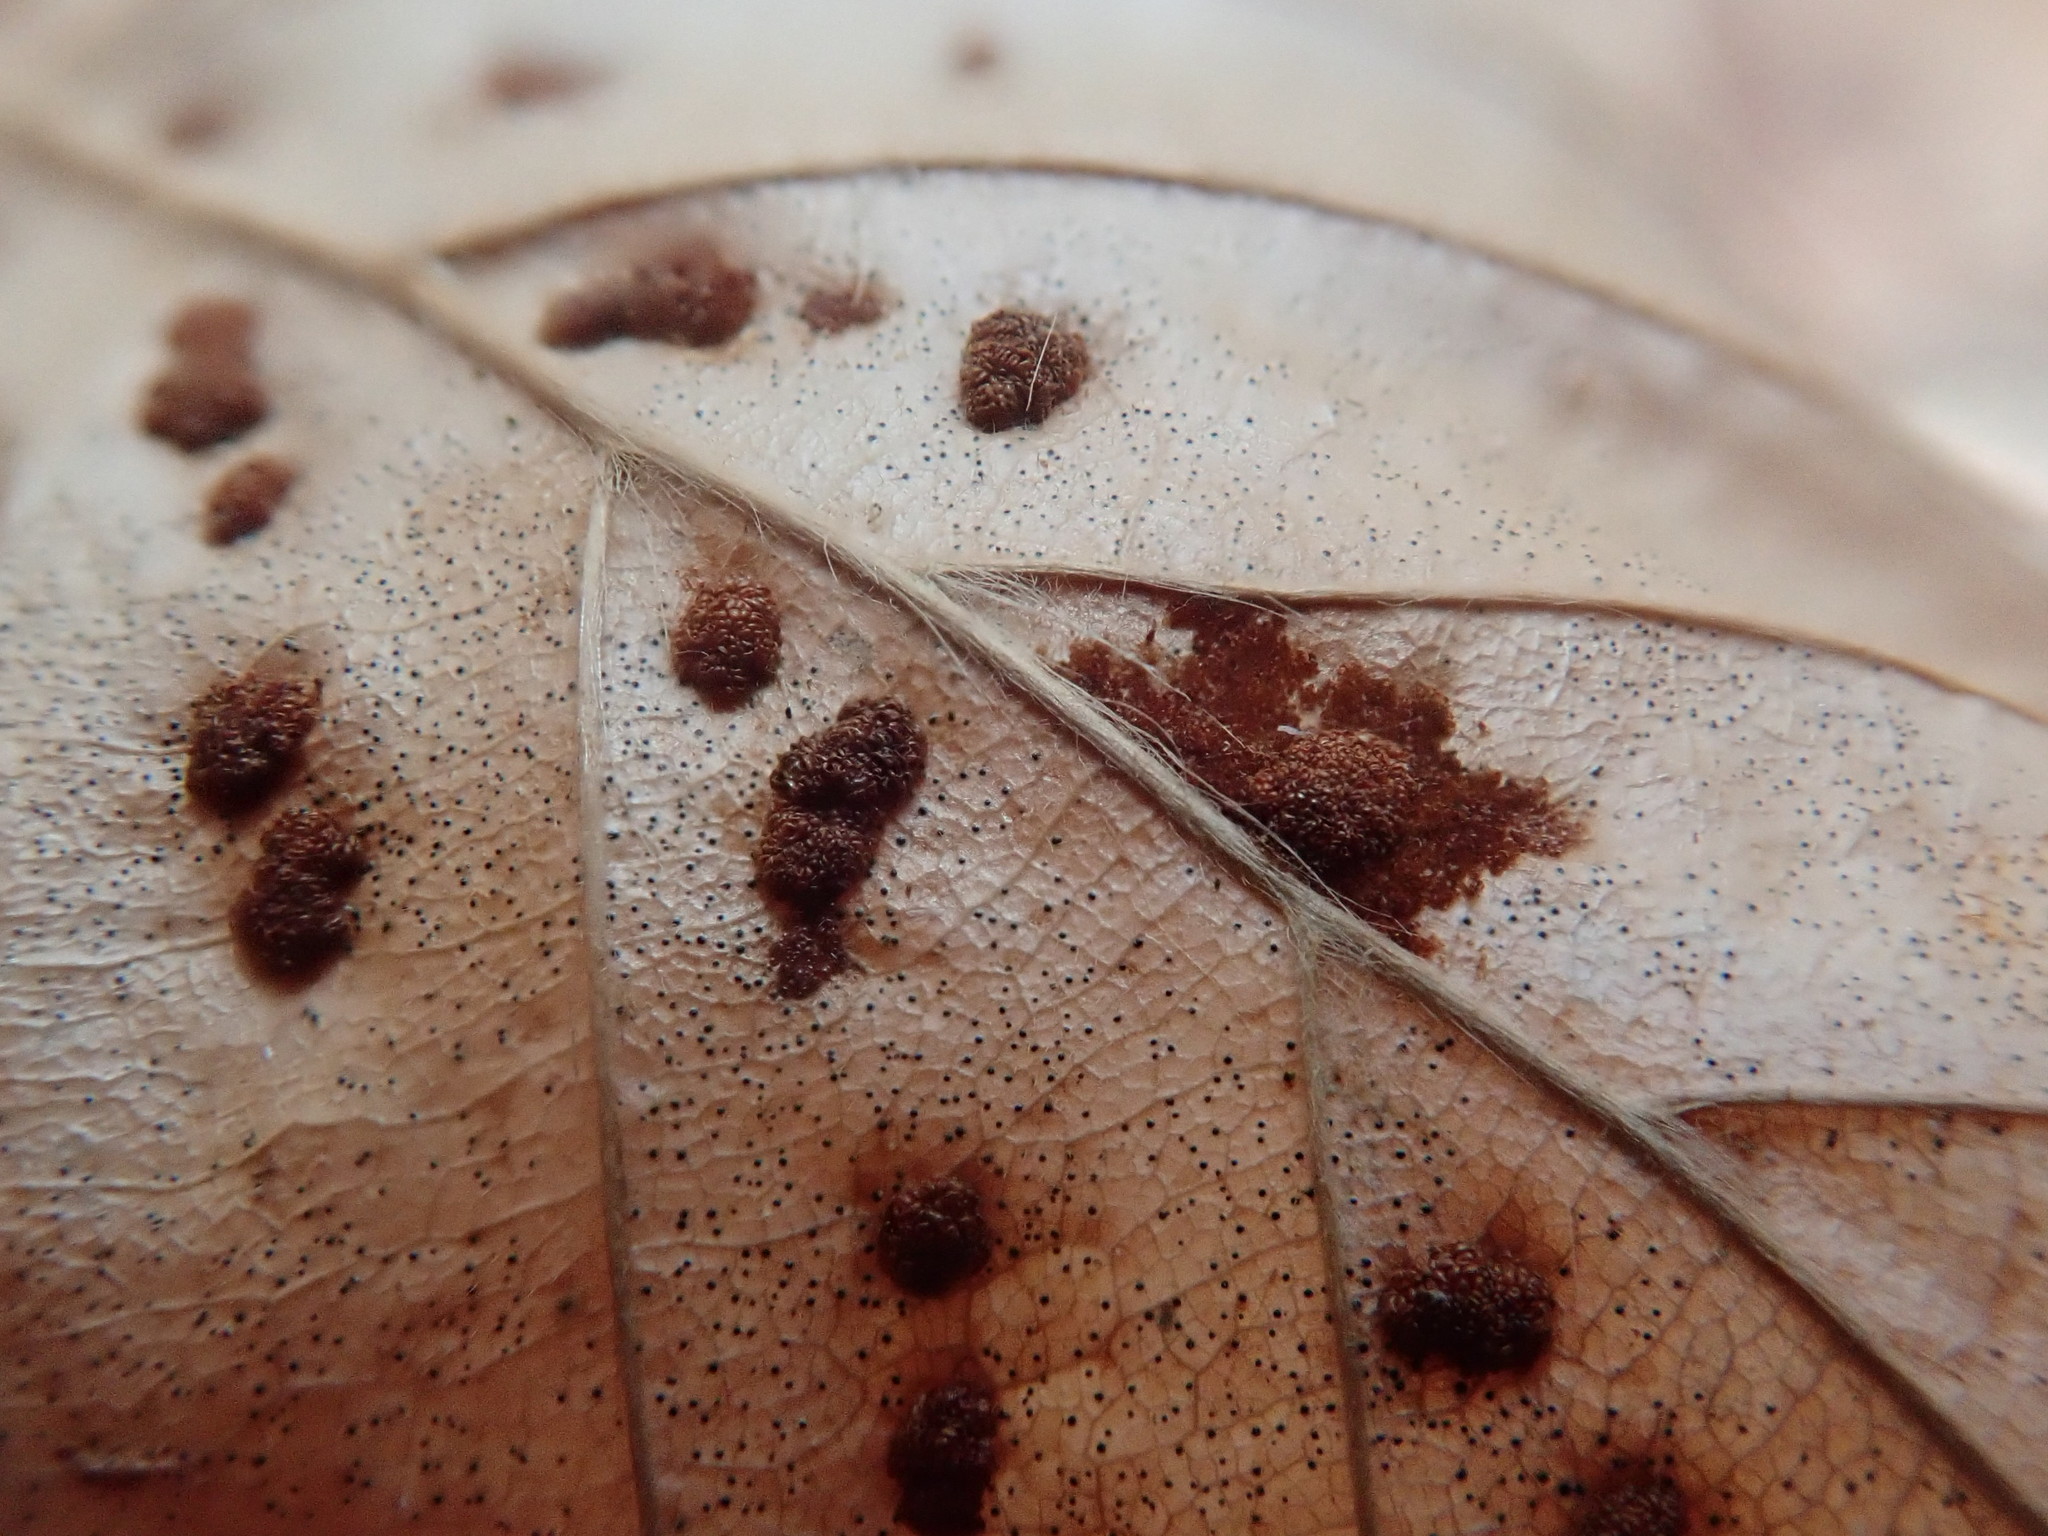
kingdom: Animalia
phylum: Arthropoda
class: Arachnida
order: Trombidiformes
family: Eriophyidae
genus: Acalitus
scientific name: Acalitus
